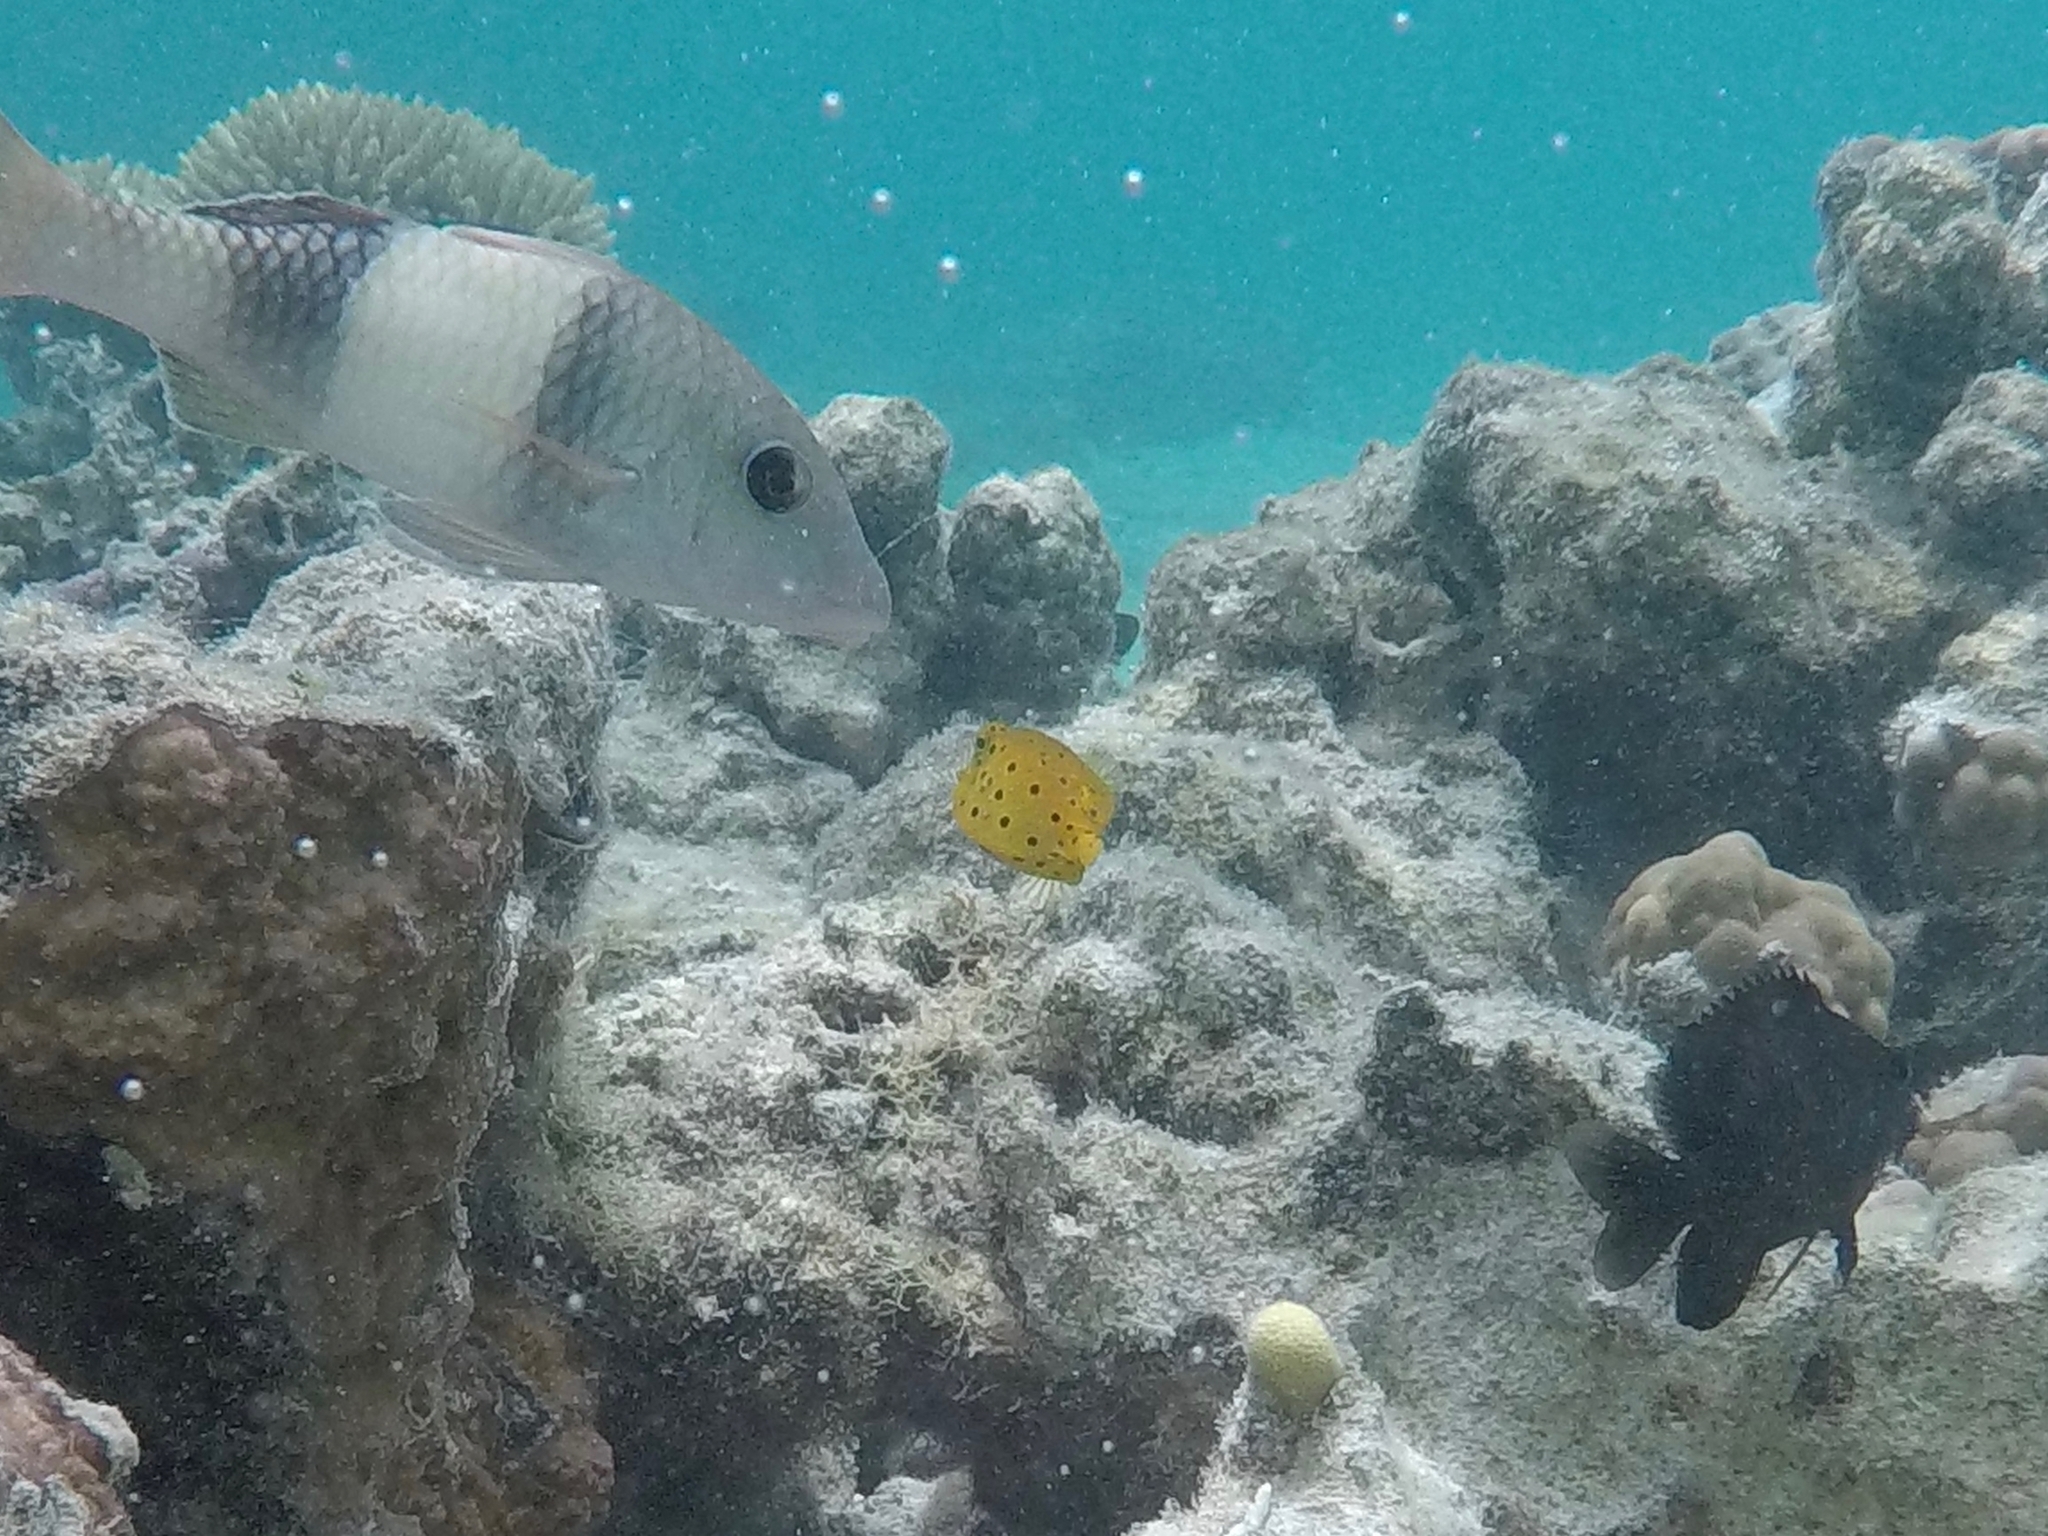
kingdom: Animalia
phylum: Chordata
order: Perciformes
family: Mullidae
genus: Parupeneus
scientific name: Parupeneus insularis
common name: Doublebar goatfish
